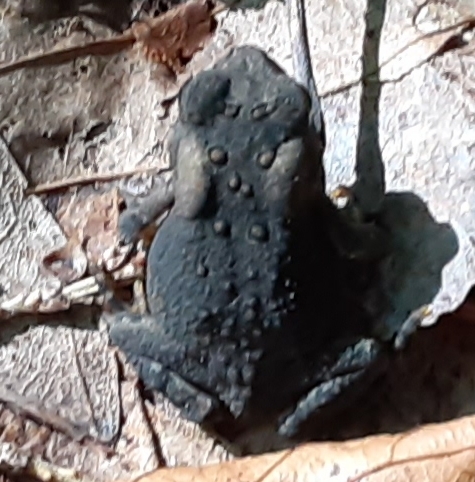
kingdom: Animalia
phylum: Chordata
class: Amphibia
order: Anura
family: Bufonidae
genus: Anaxyrus
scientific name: Anaxyrus americanus
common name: American toad
